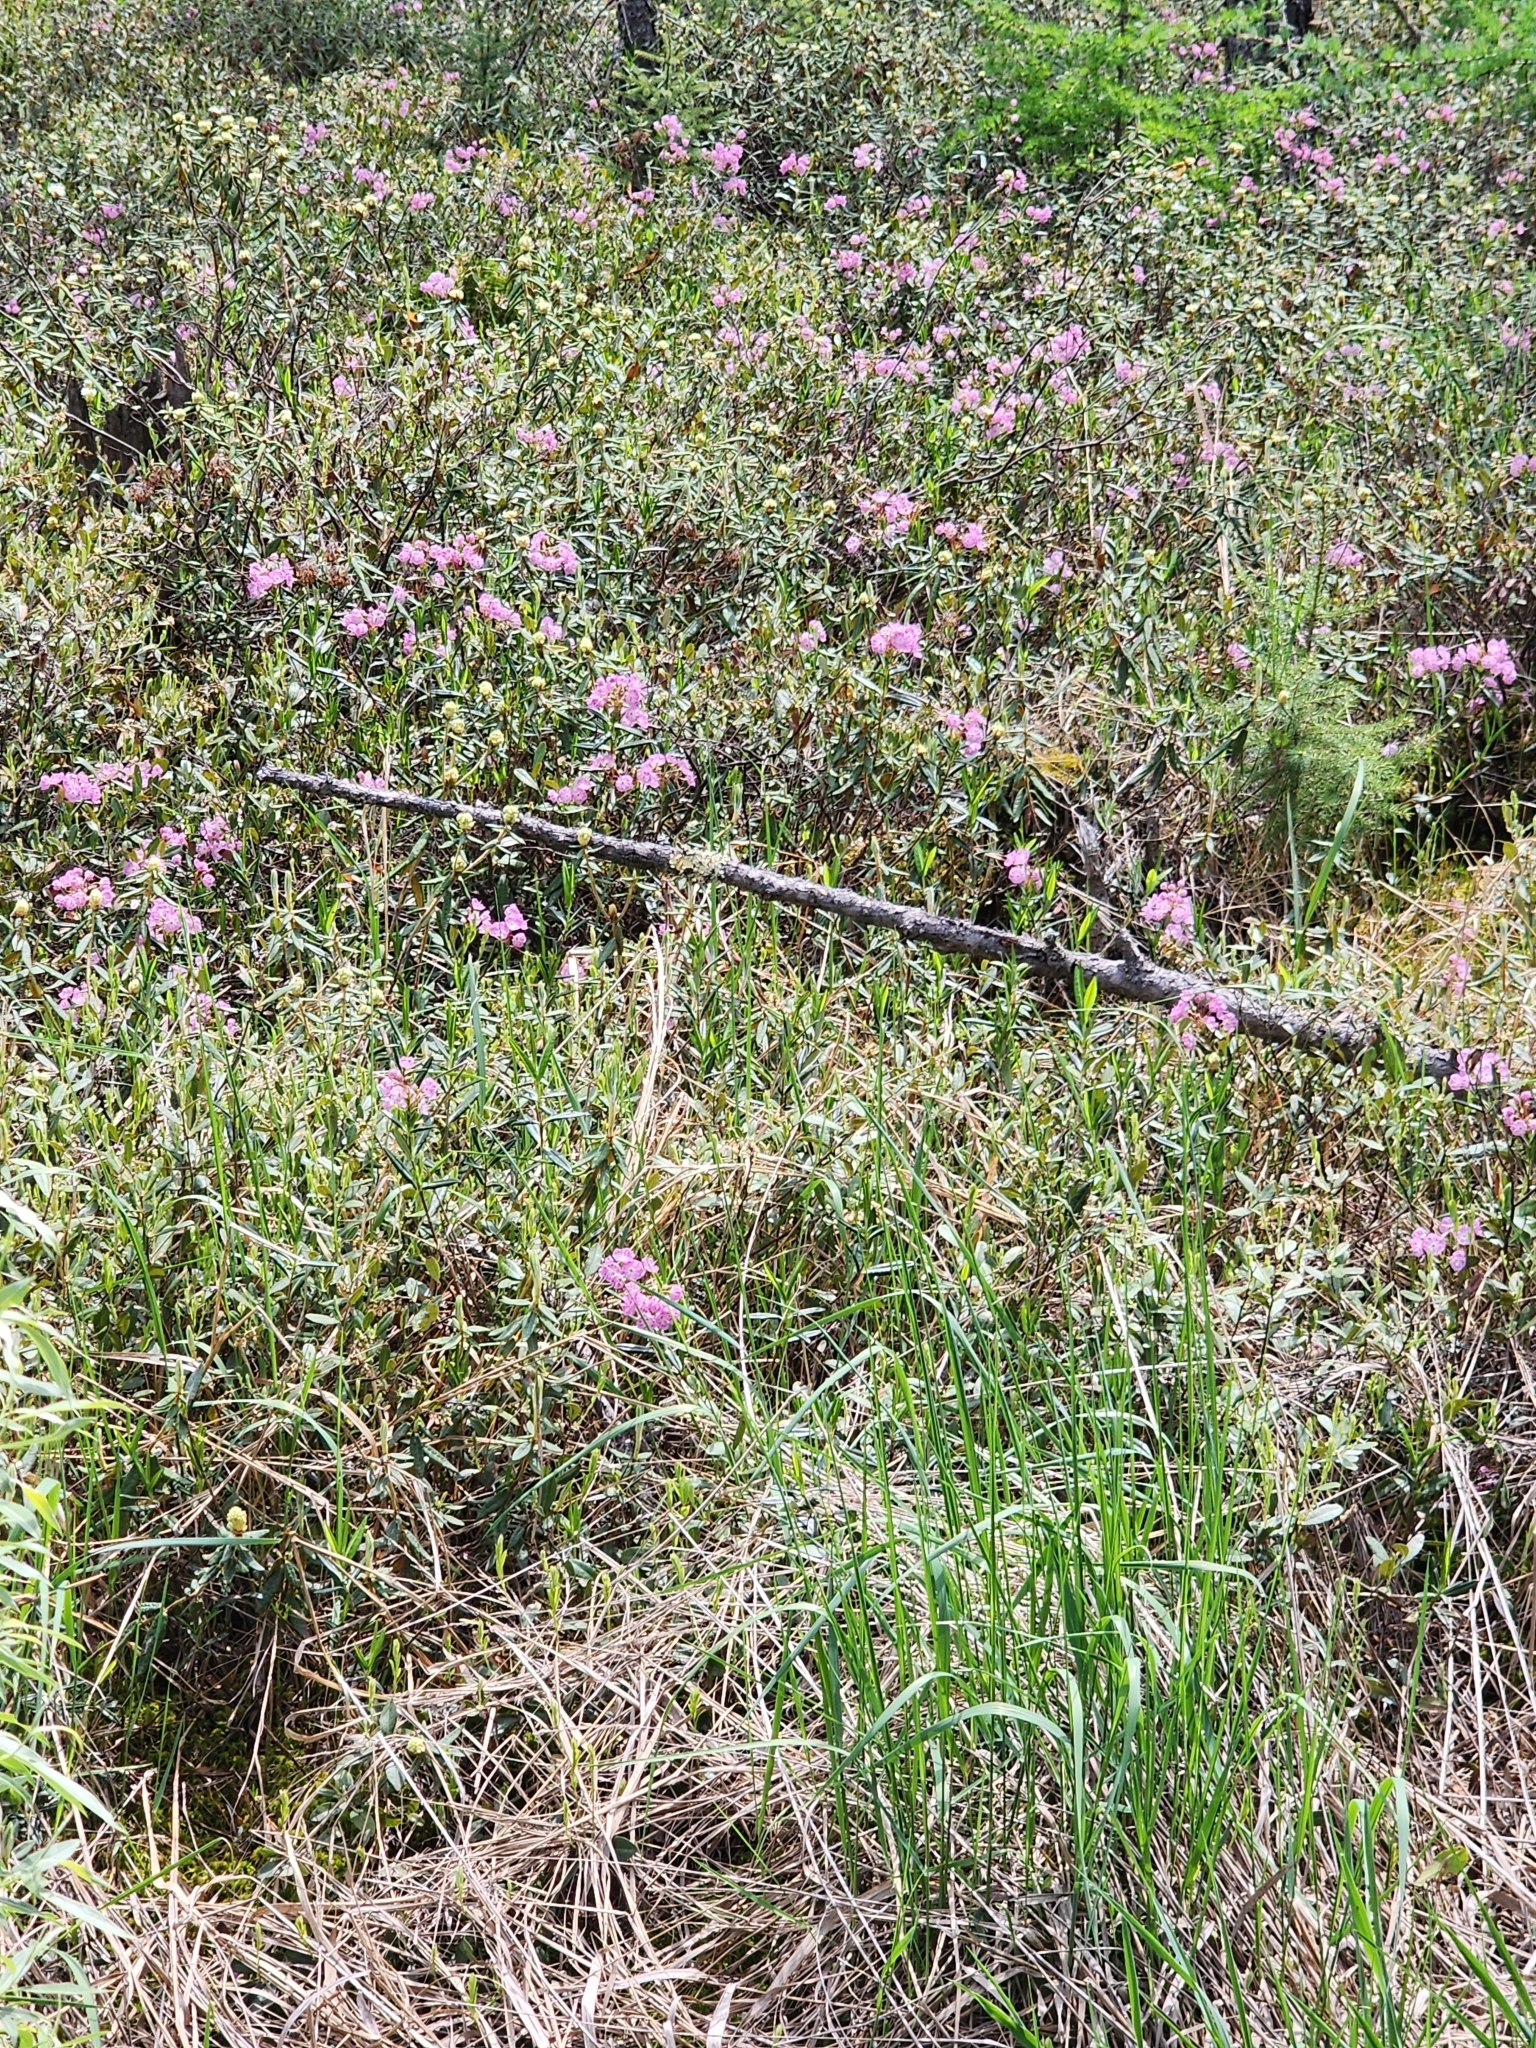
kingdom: Plantae
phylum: Tracheophyta
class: Magnoliopsida
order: Ericales
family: Ericaceae
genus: Kalmia
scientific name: Kalmia polifolia
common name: Bog-laurel
